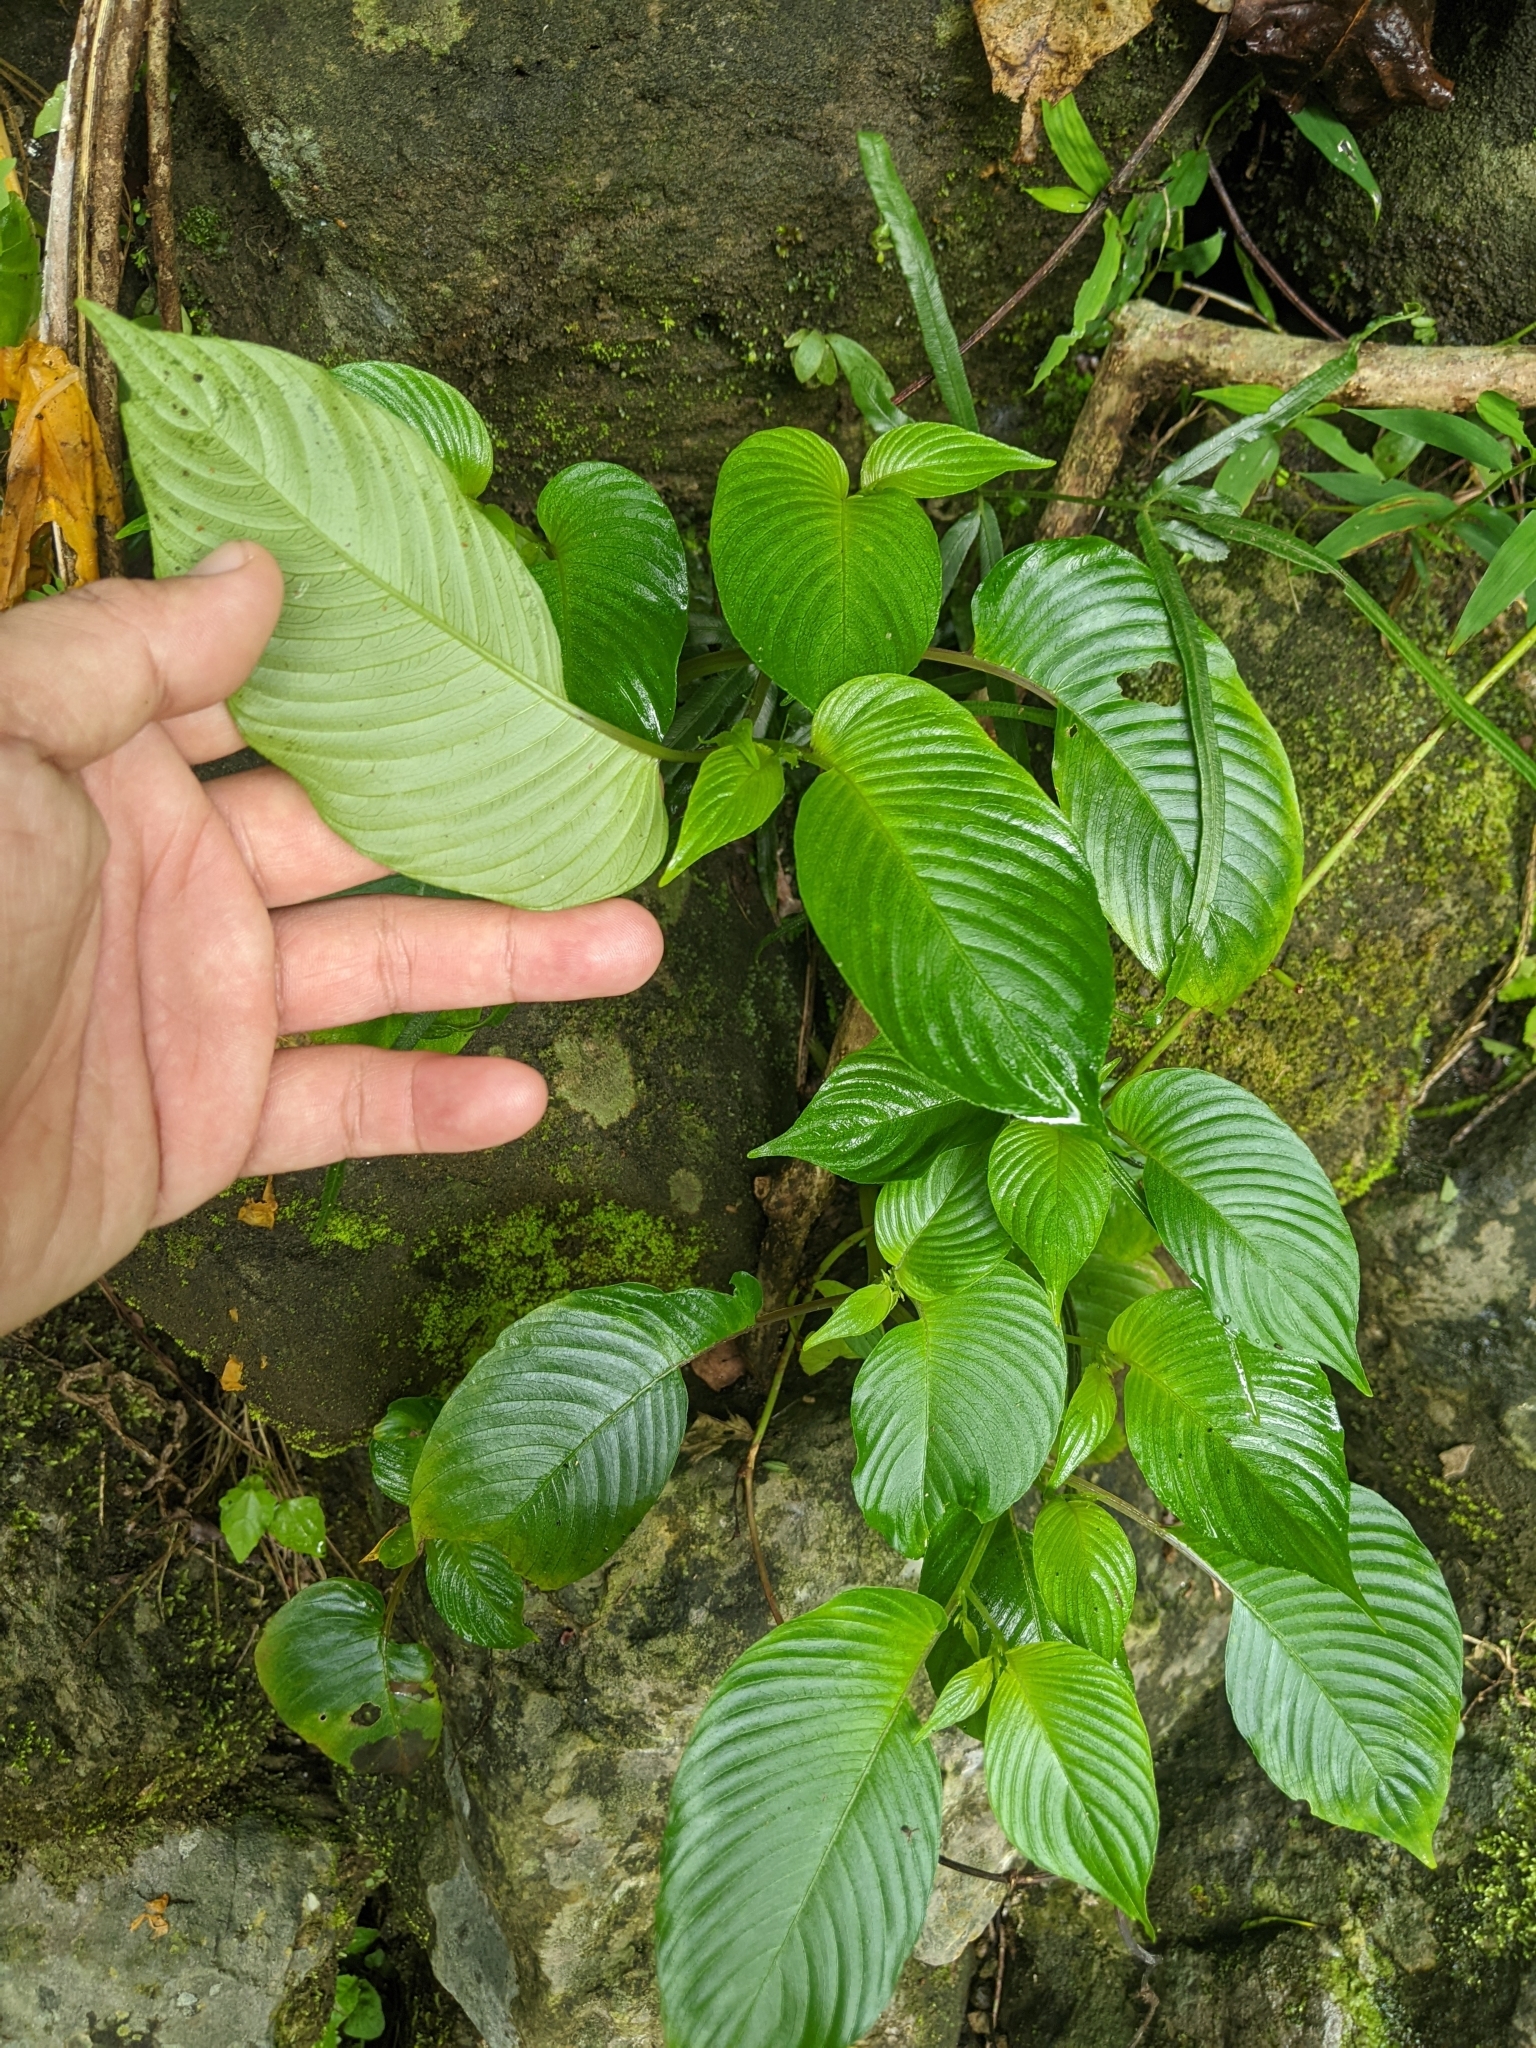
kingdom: Plantae
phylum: Tracheophyta
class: Magnoliopsida
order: Lamiales
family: Gesneriaceae
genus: Rhynchoglossum
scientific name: Rhynchoglossum obliquum
